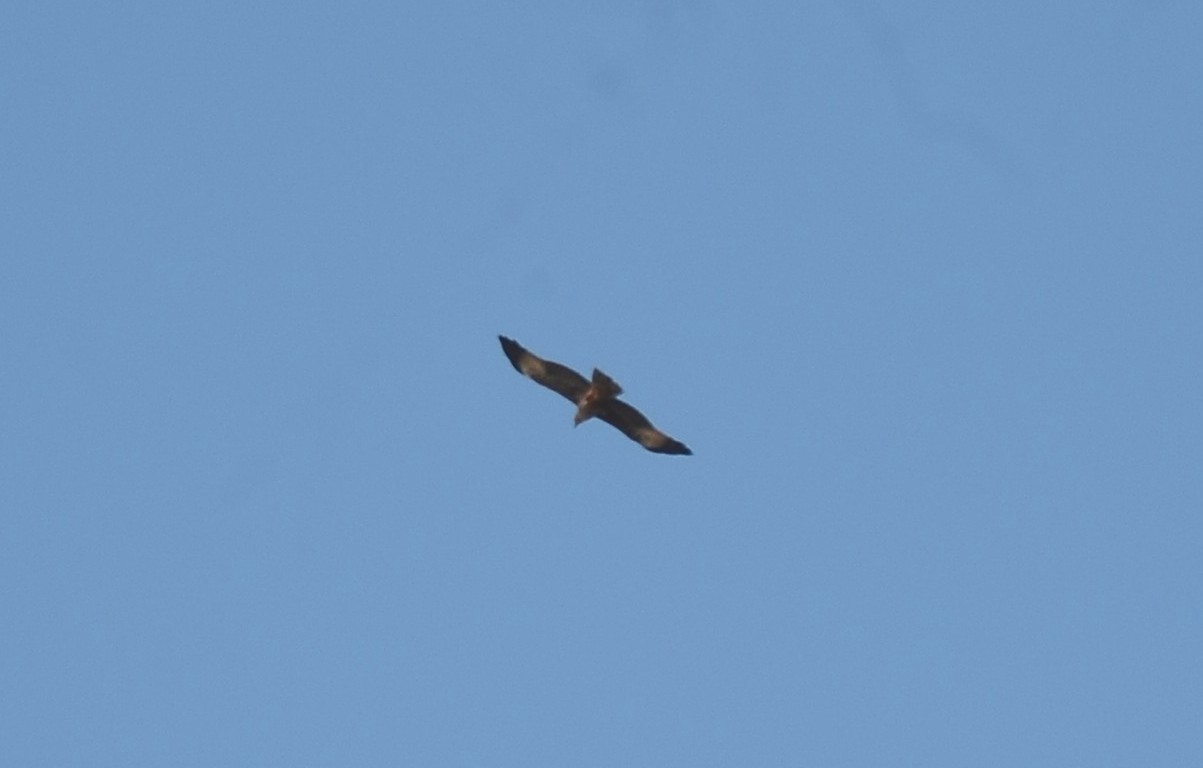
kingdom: Animalia
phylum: Chordata
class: Aves
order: Accipitriformes
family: Accipitridae
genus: Haliastur
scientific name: Haliastur indus
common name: Brahminy kite
